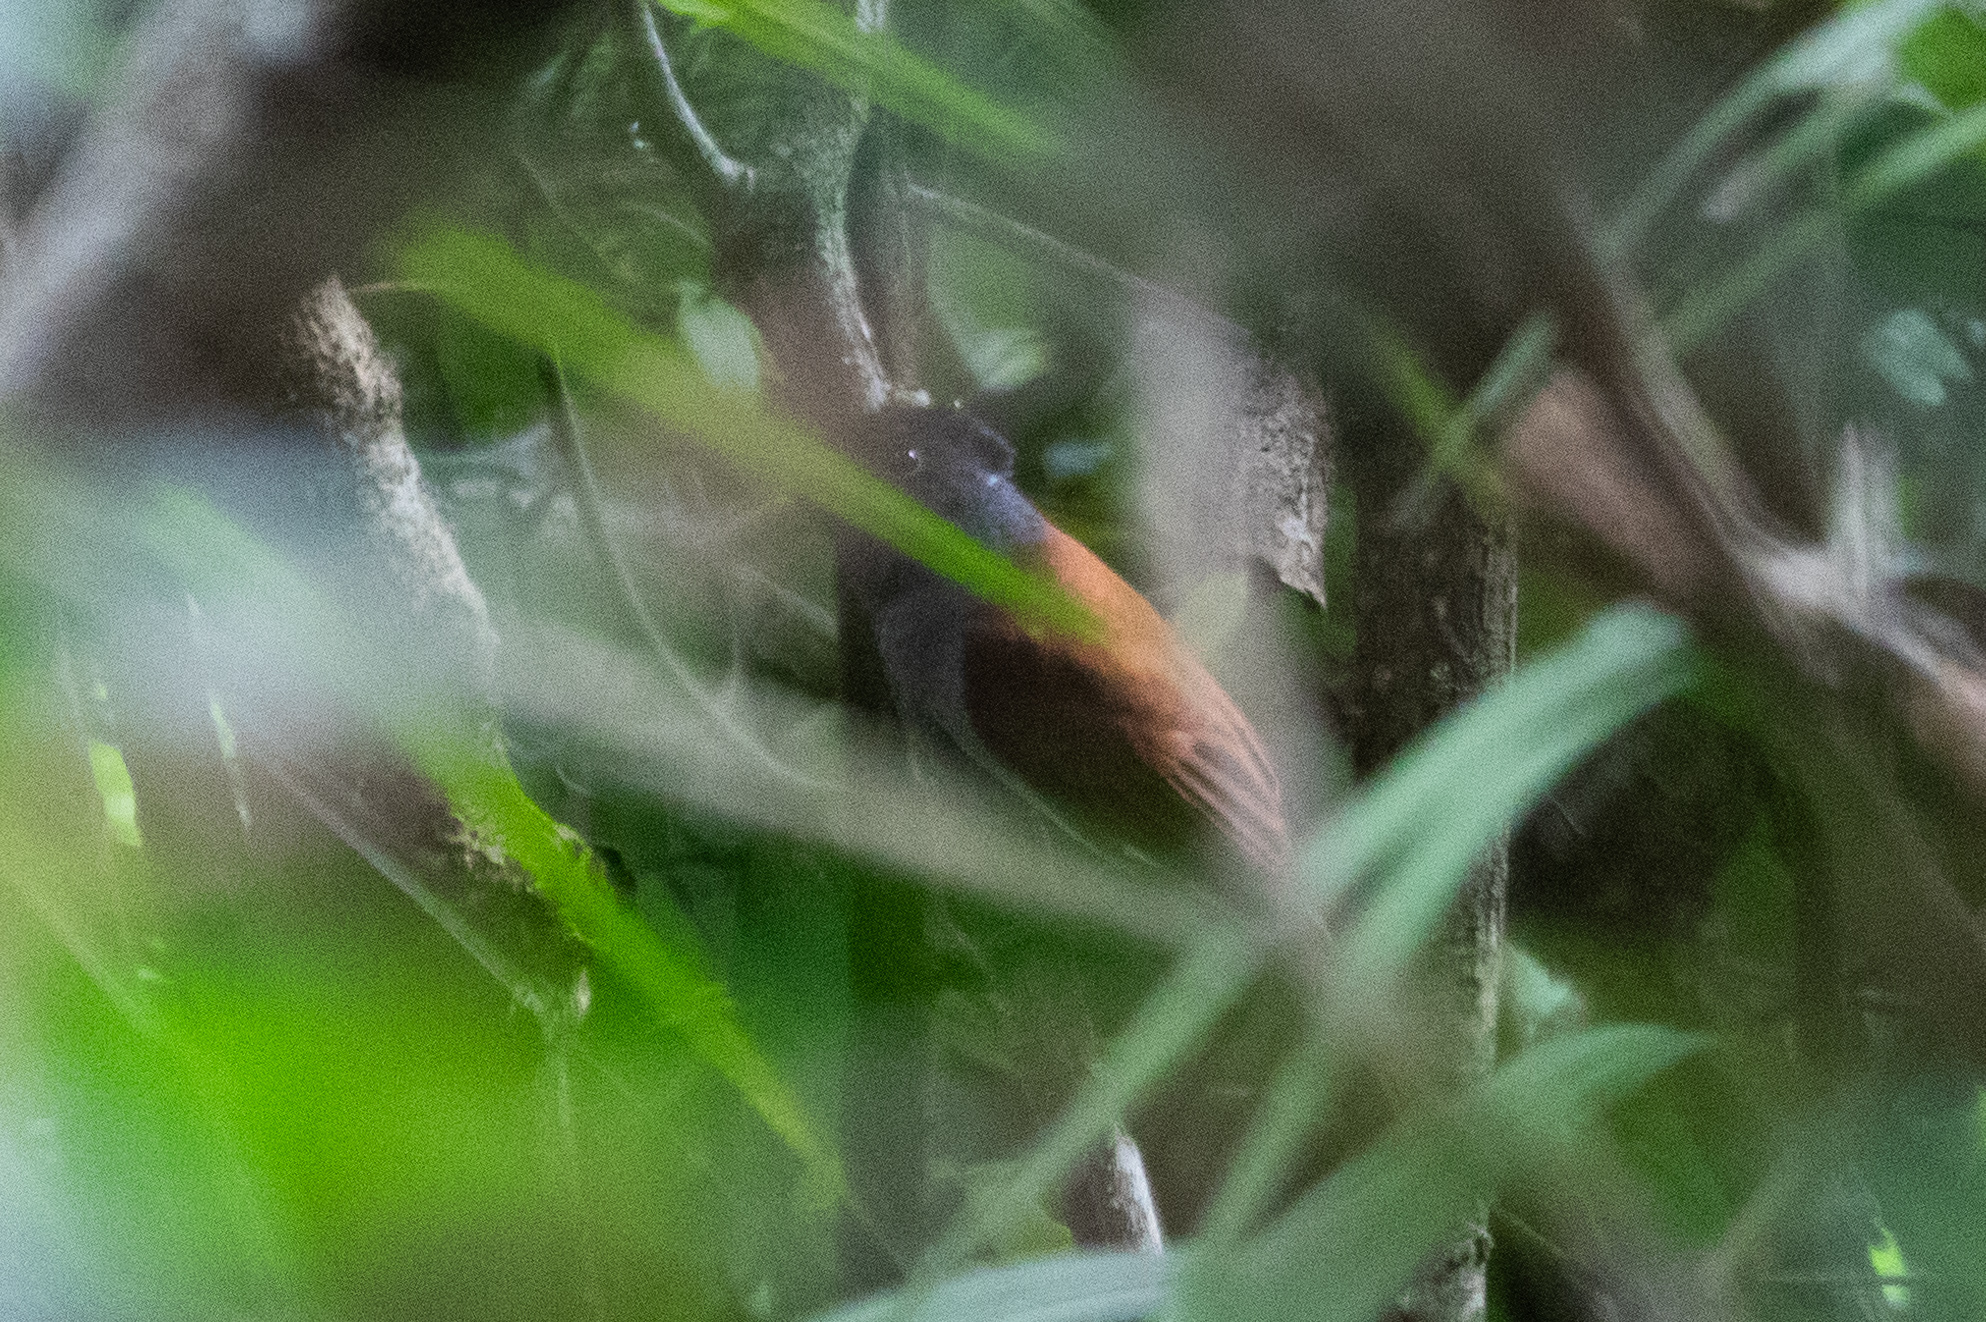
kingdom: Animalia
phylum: Chordata
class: Aves
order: Passeriformes
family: Monarchidae
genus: Terpsiphone
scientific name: Terpsiphone paradisi
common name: Indian paradise flycatcher
